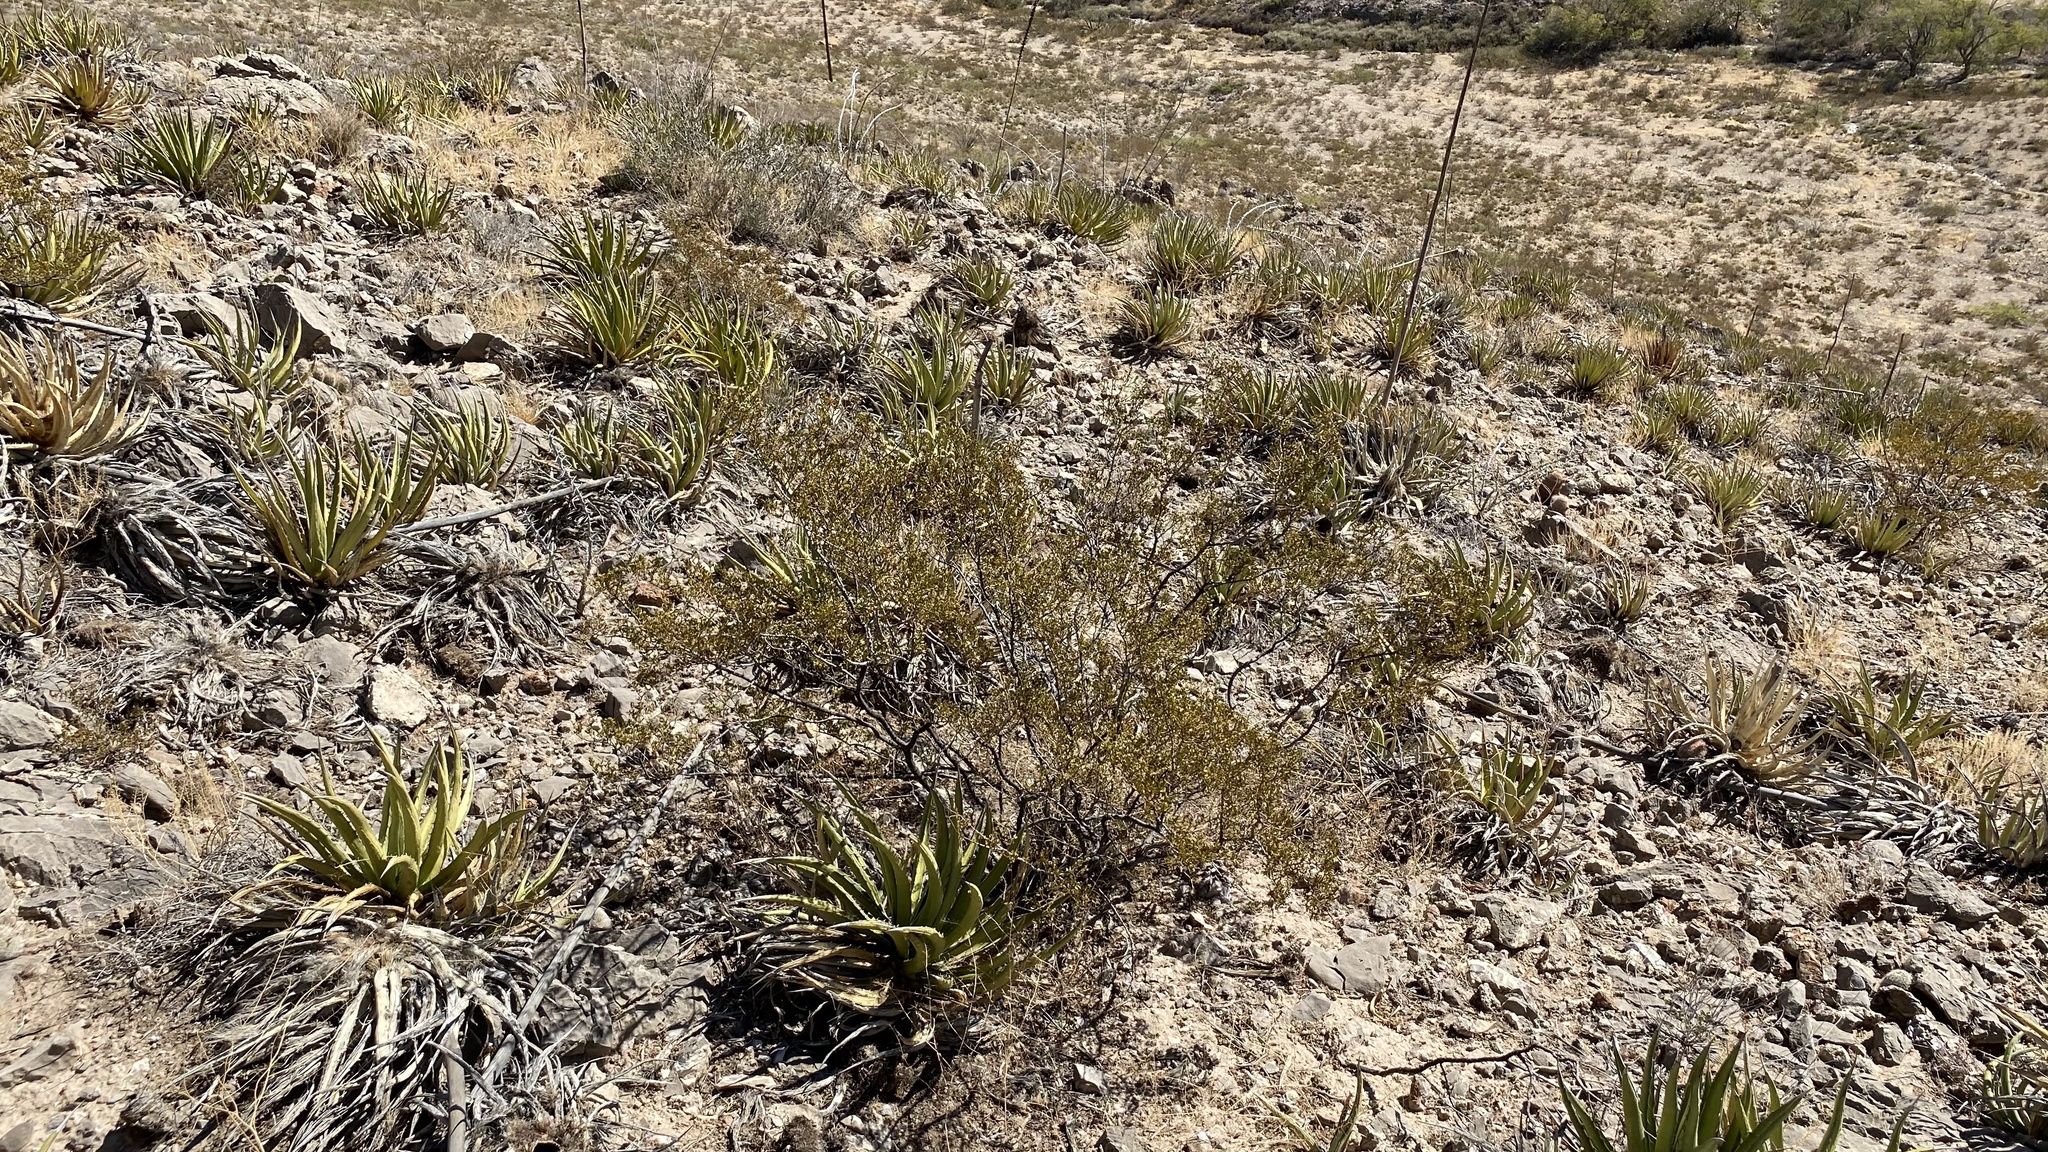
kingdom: Plantae
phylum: Tracheophyta
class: Magnoliopsida
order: Zygophyllales
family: Zygophyllaceae
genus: Larrea
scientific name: Larrea tridentata
